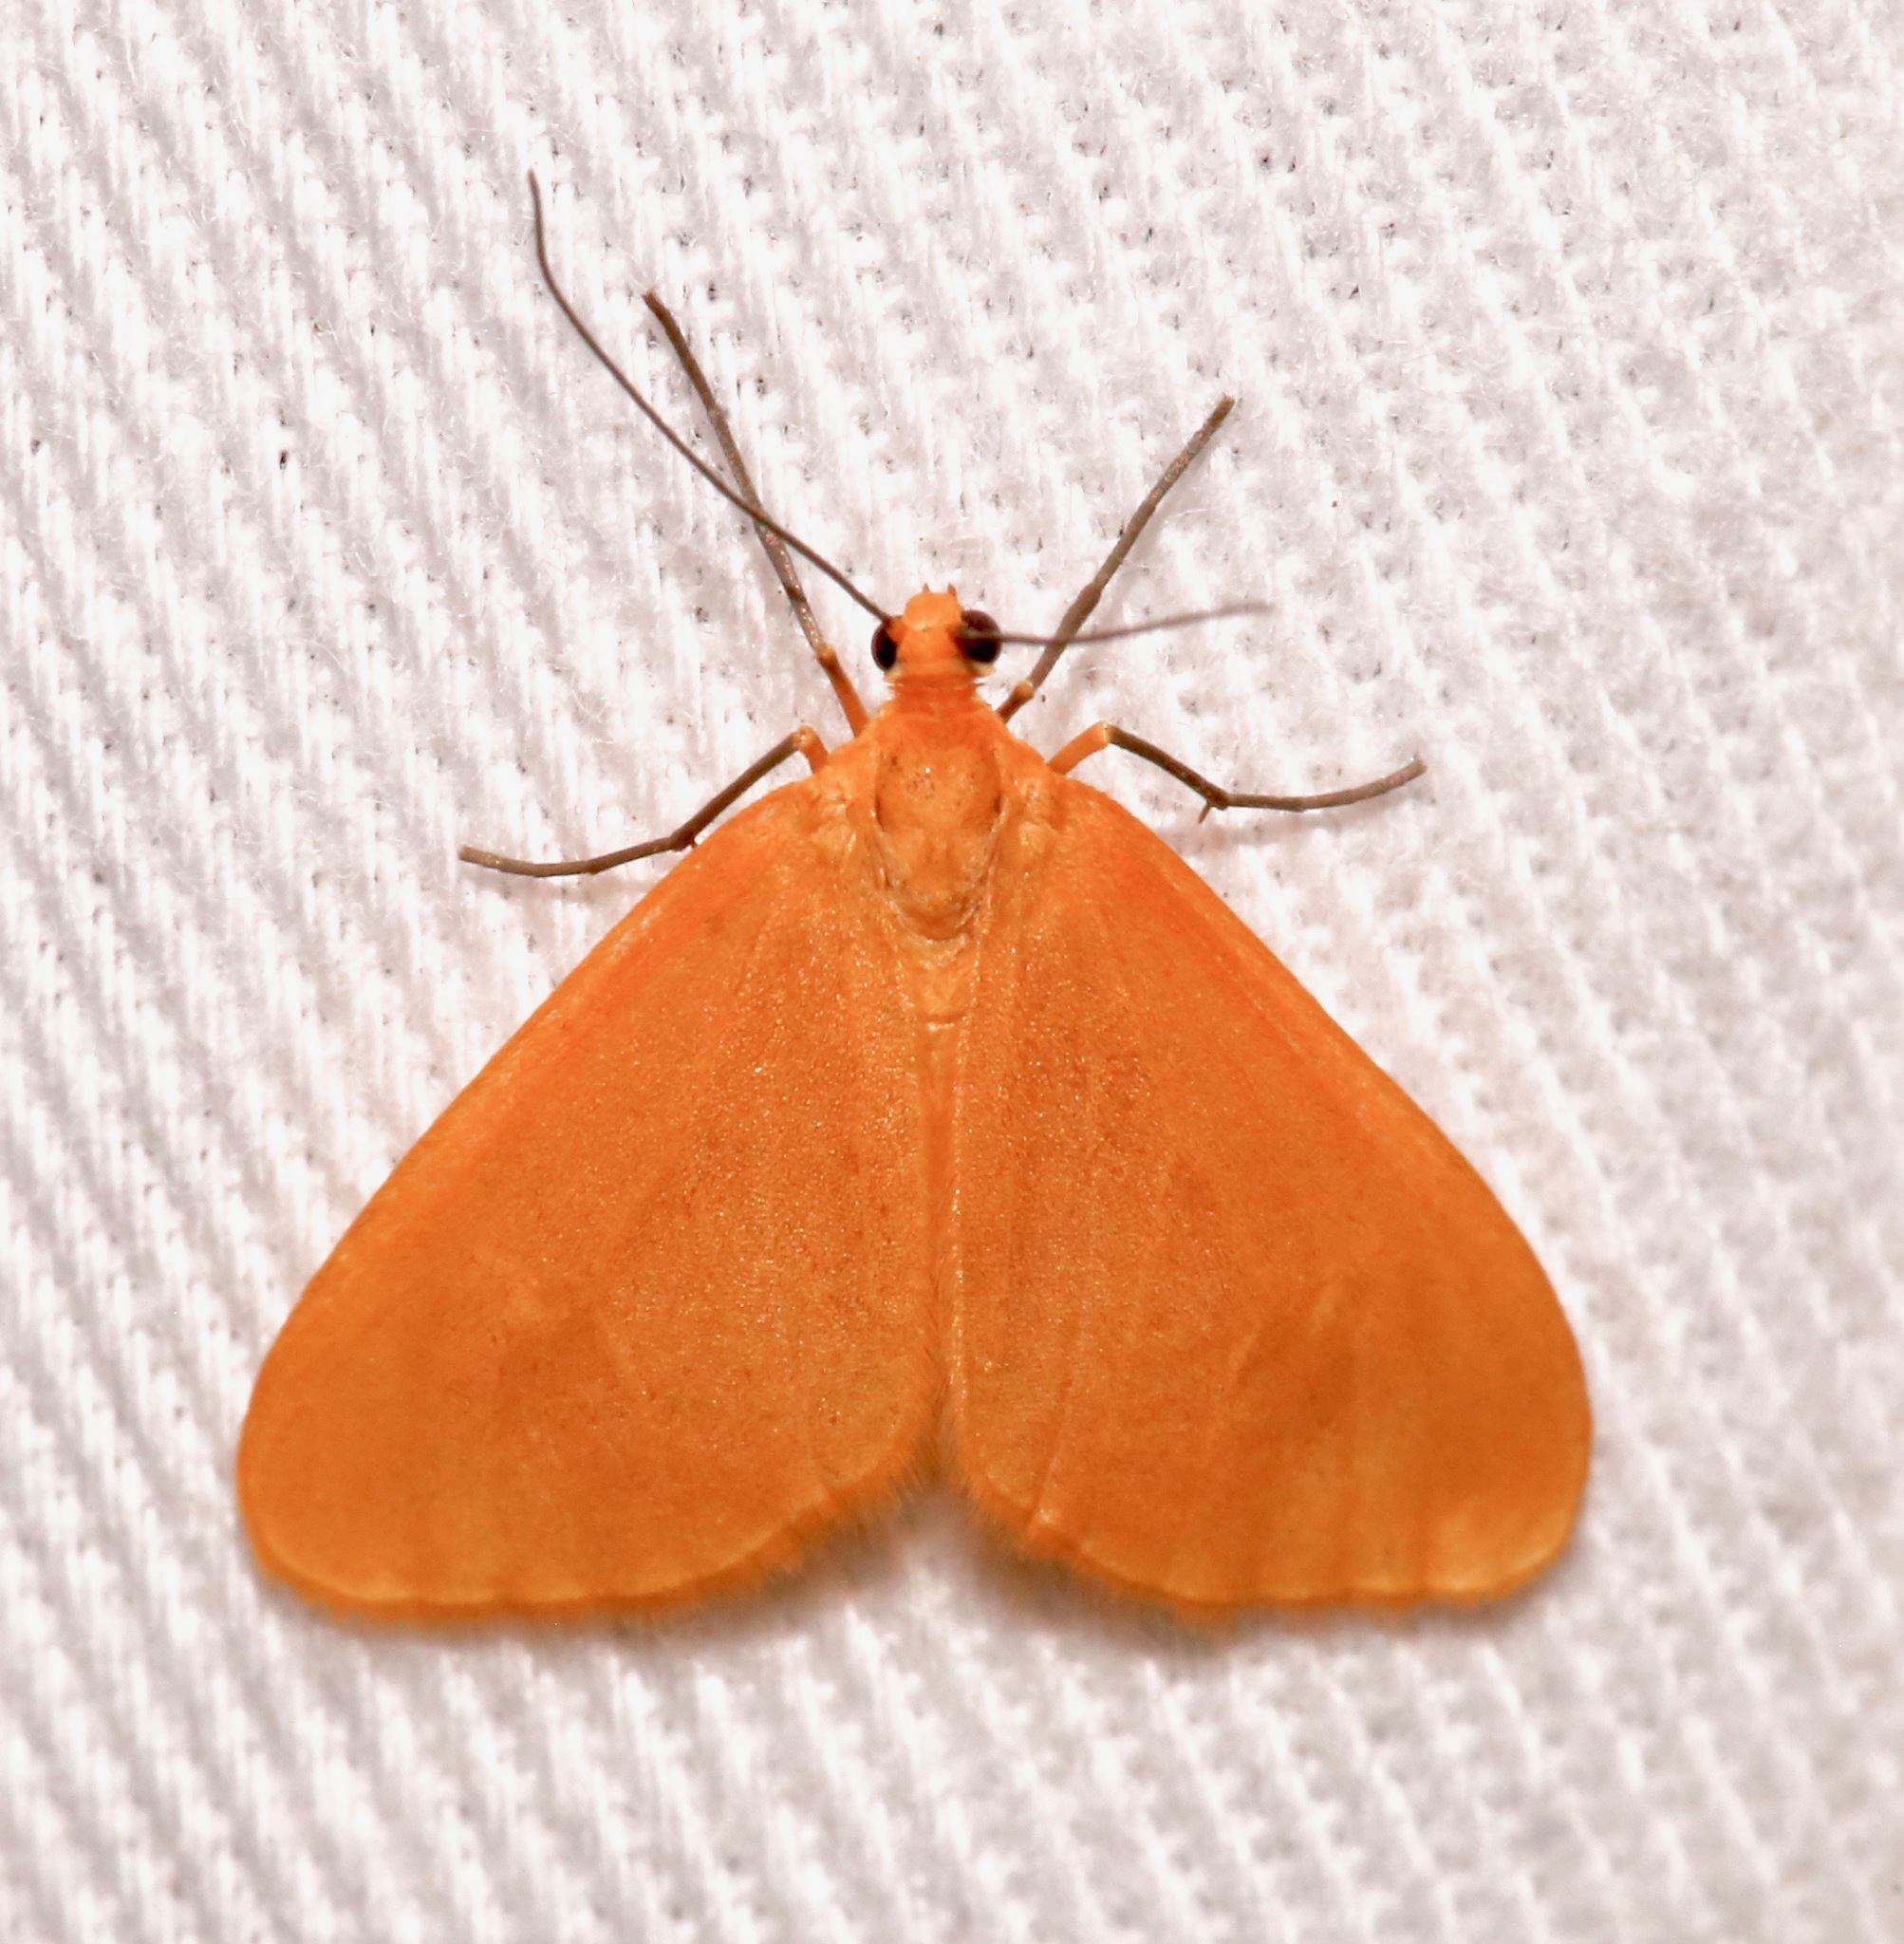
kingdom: Animalia
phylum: Arthropoda
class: Insecta
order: Lepidoptera
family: Geometridae
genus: Eubaphe
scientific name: Eubaphe unicolor
